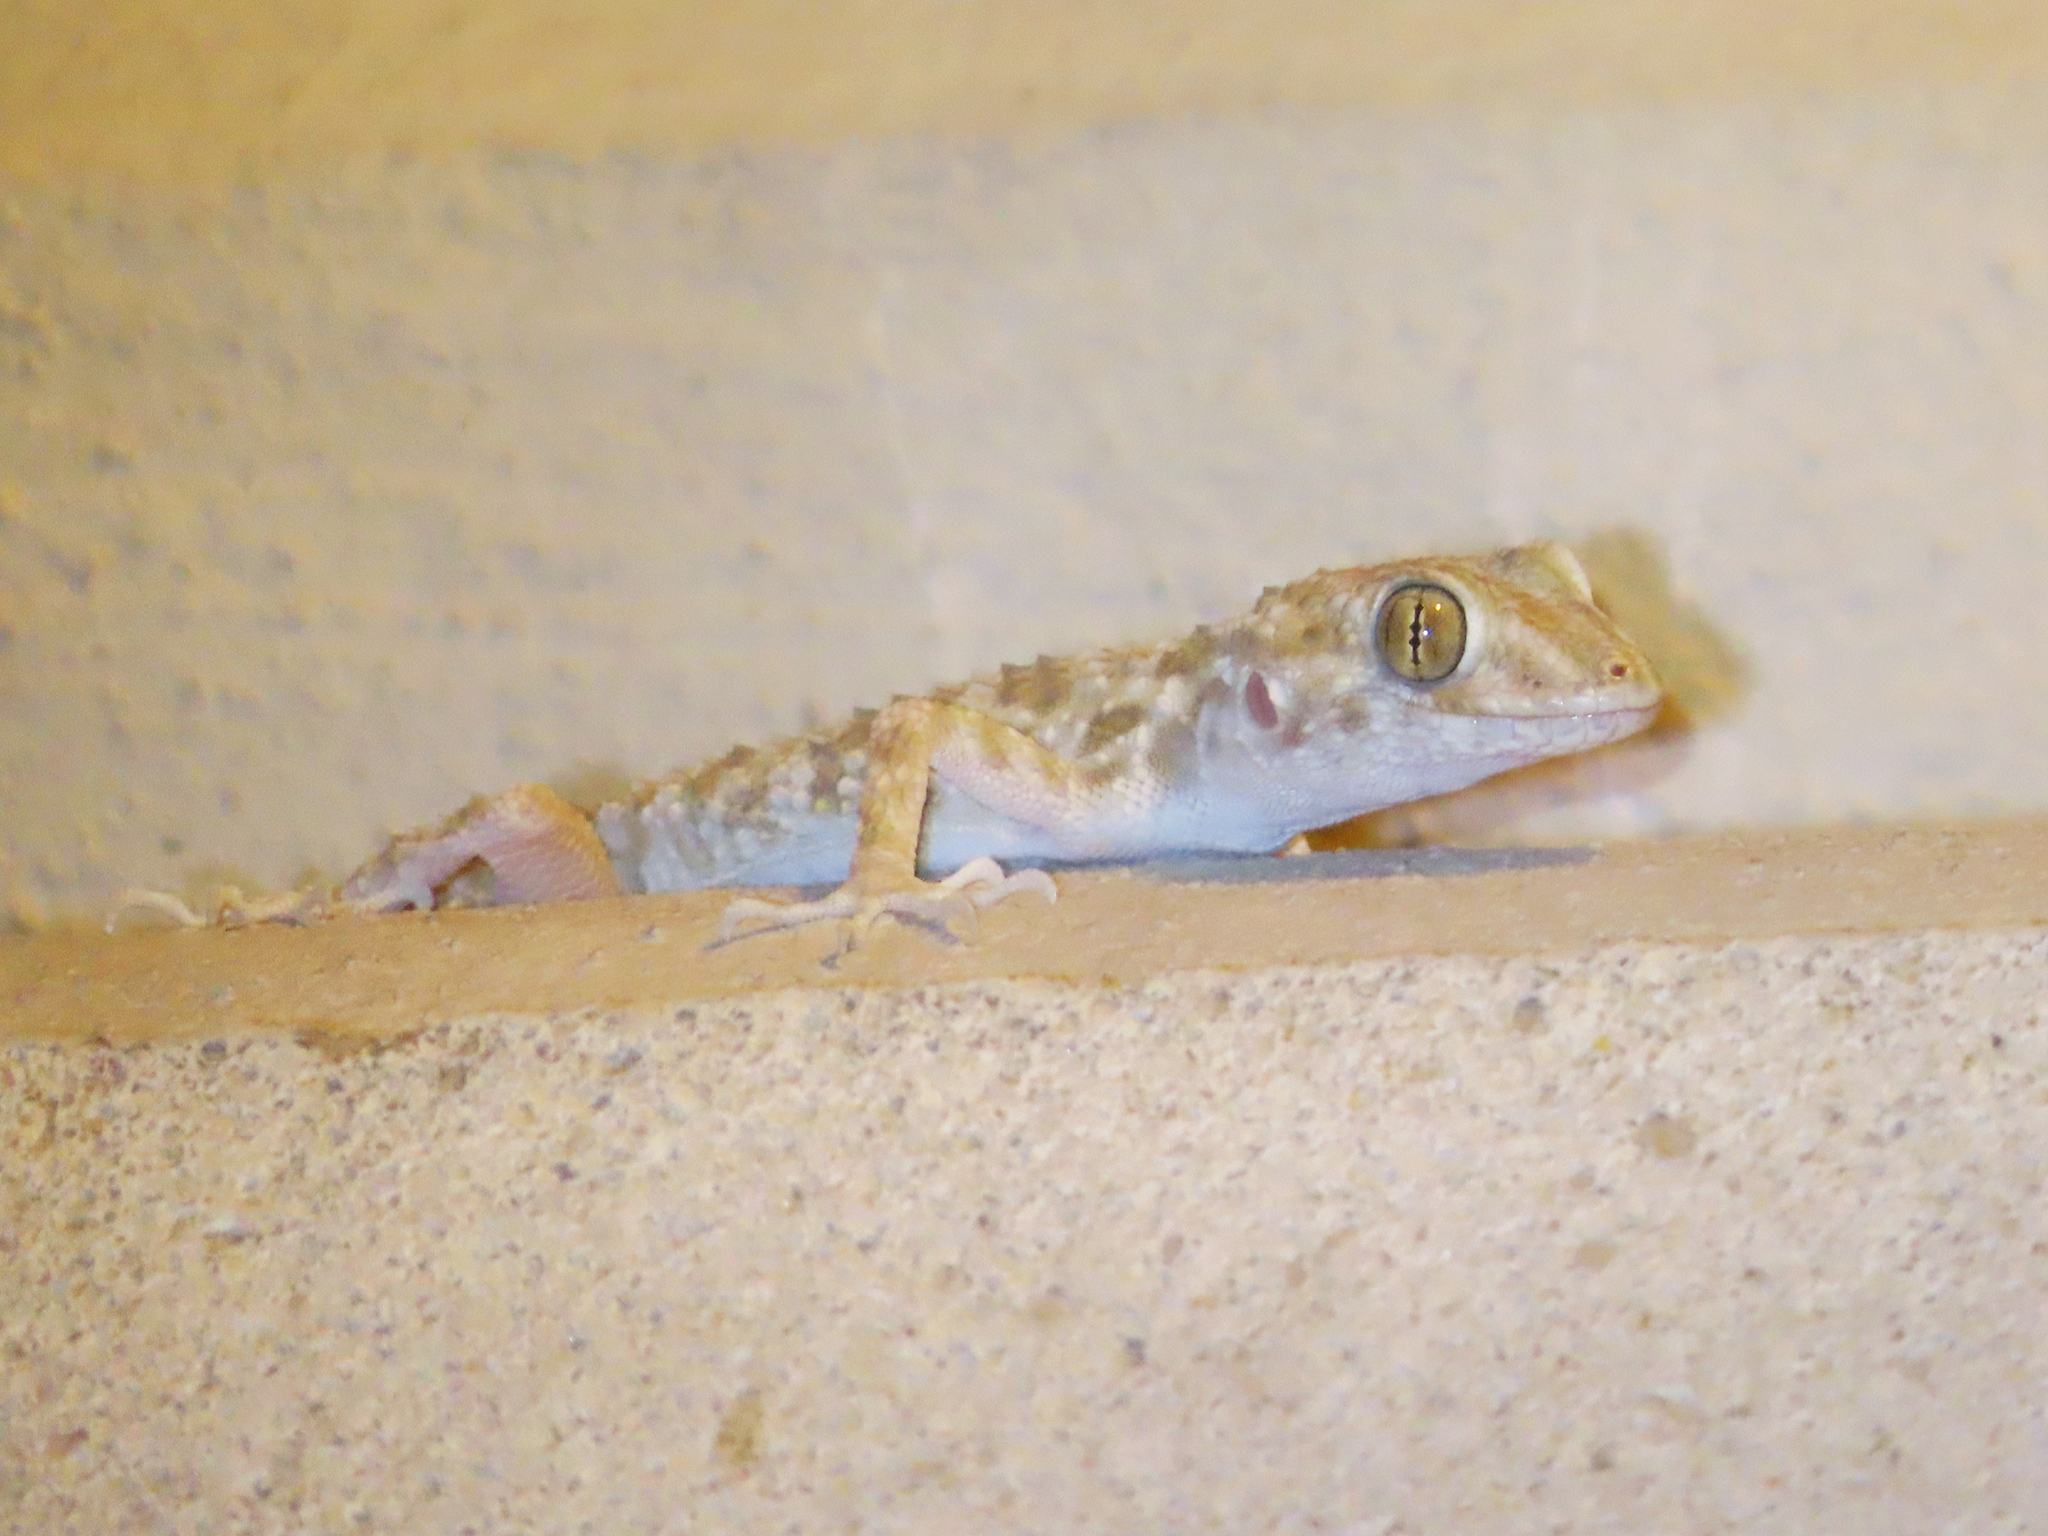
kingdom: Animalia
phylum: Chordata
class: Squamata
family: Gekkonidae
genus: Tenuidactylus
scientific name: Tenuidactylus caspius
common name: Caspian bent-toed gecko
